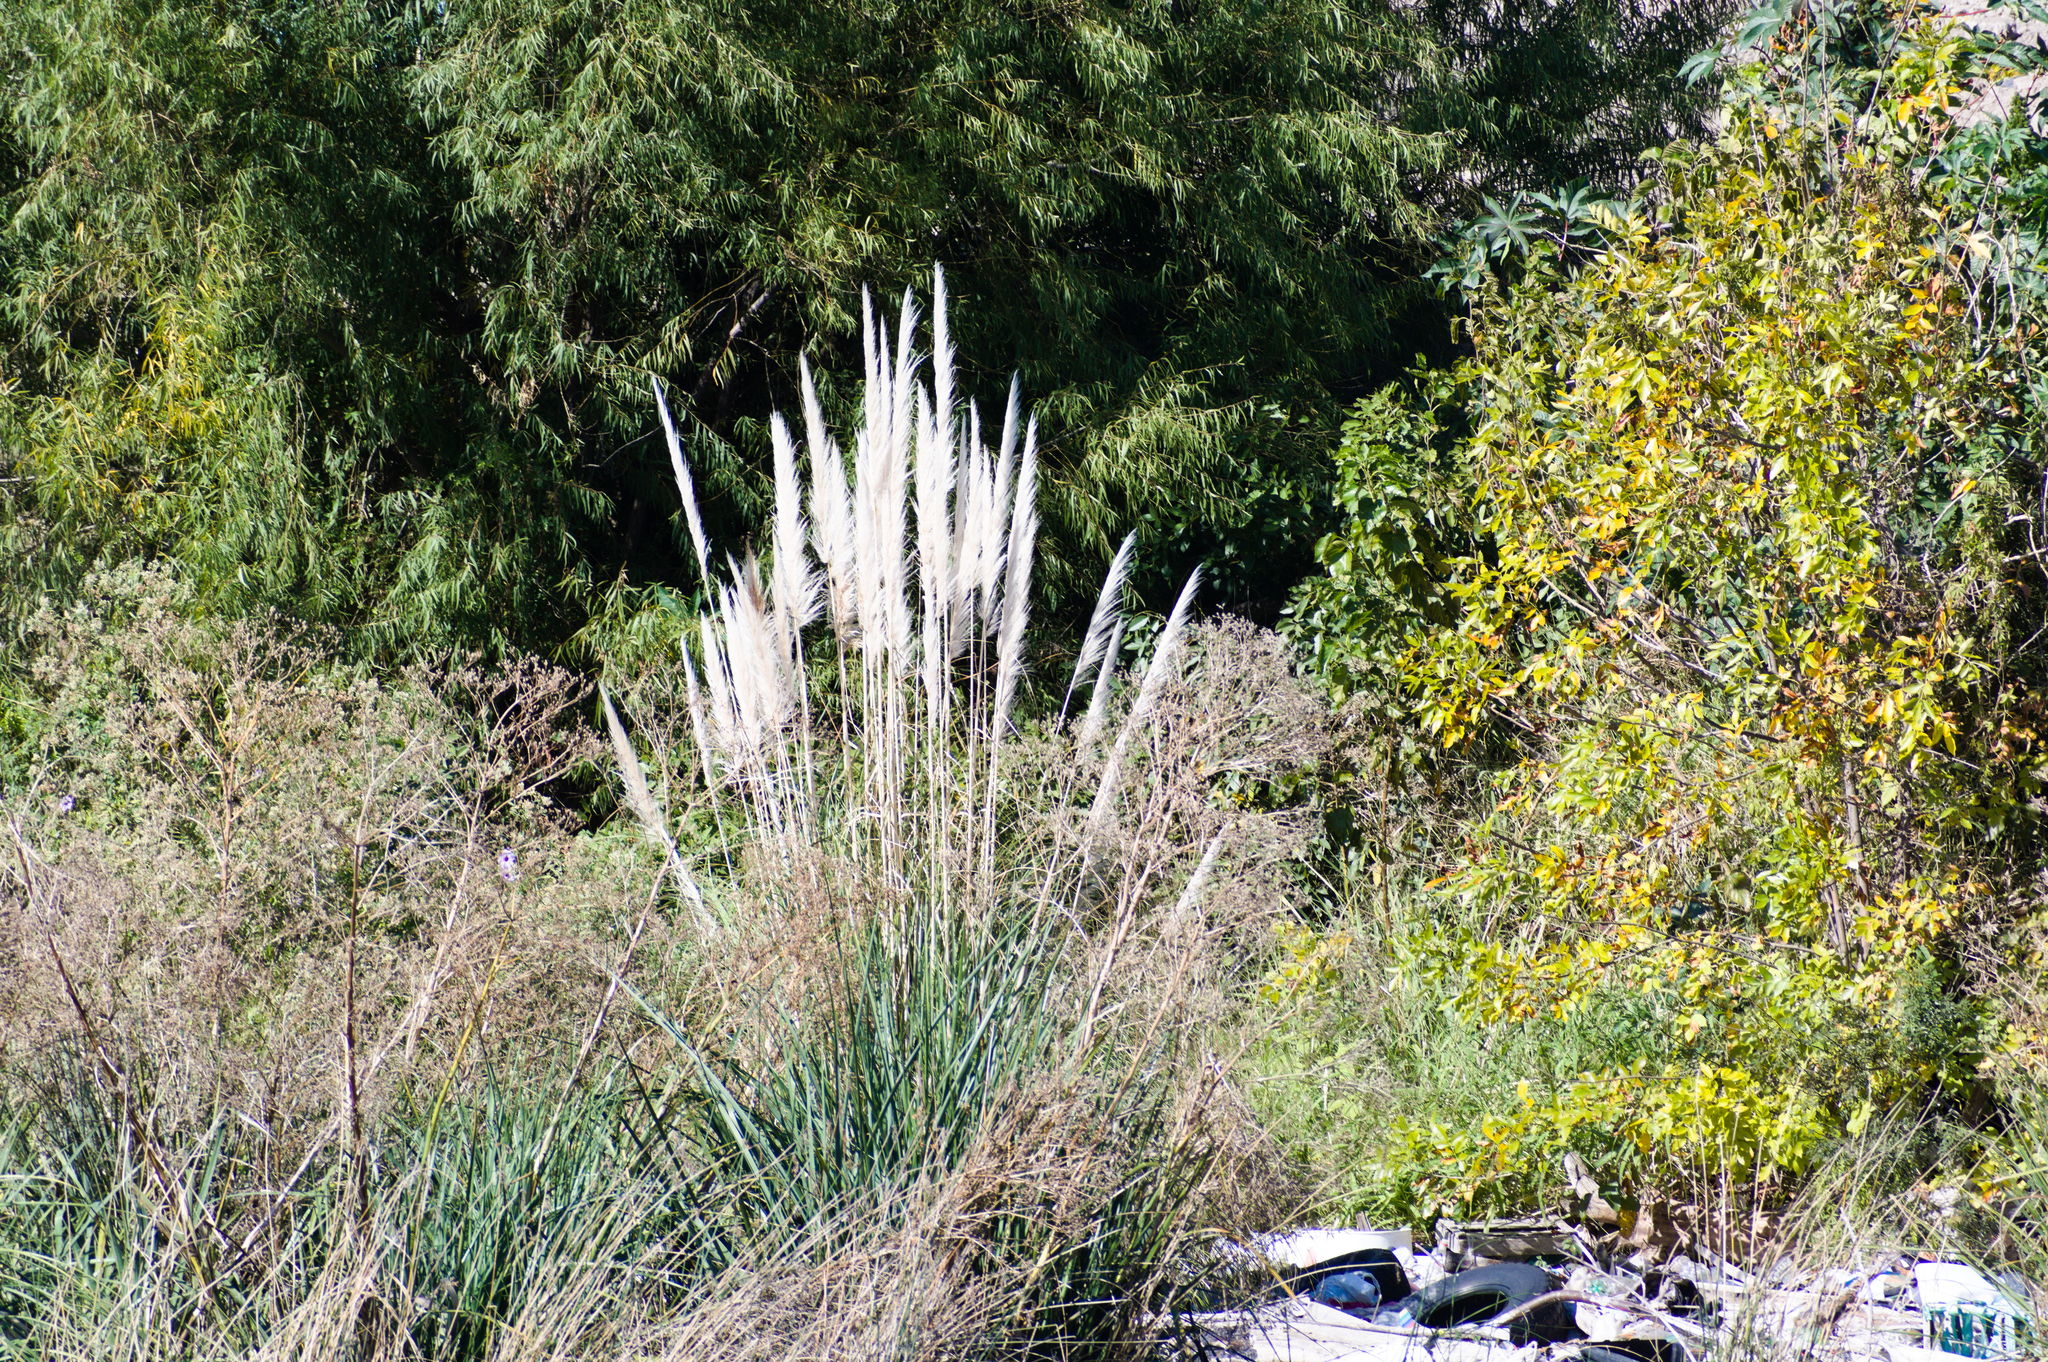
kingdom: Plantae
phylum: Tracheophyta
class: Liliopsida
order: Poales
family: Poaceae
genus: Cortaderia
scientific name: Cortaderia selloana
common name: Uruguayan pampas grass
